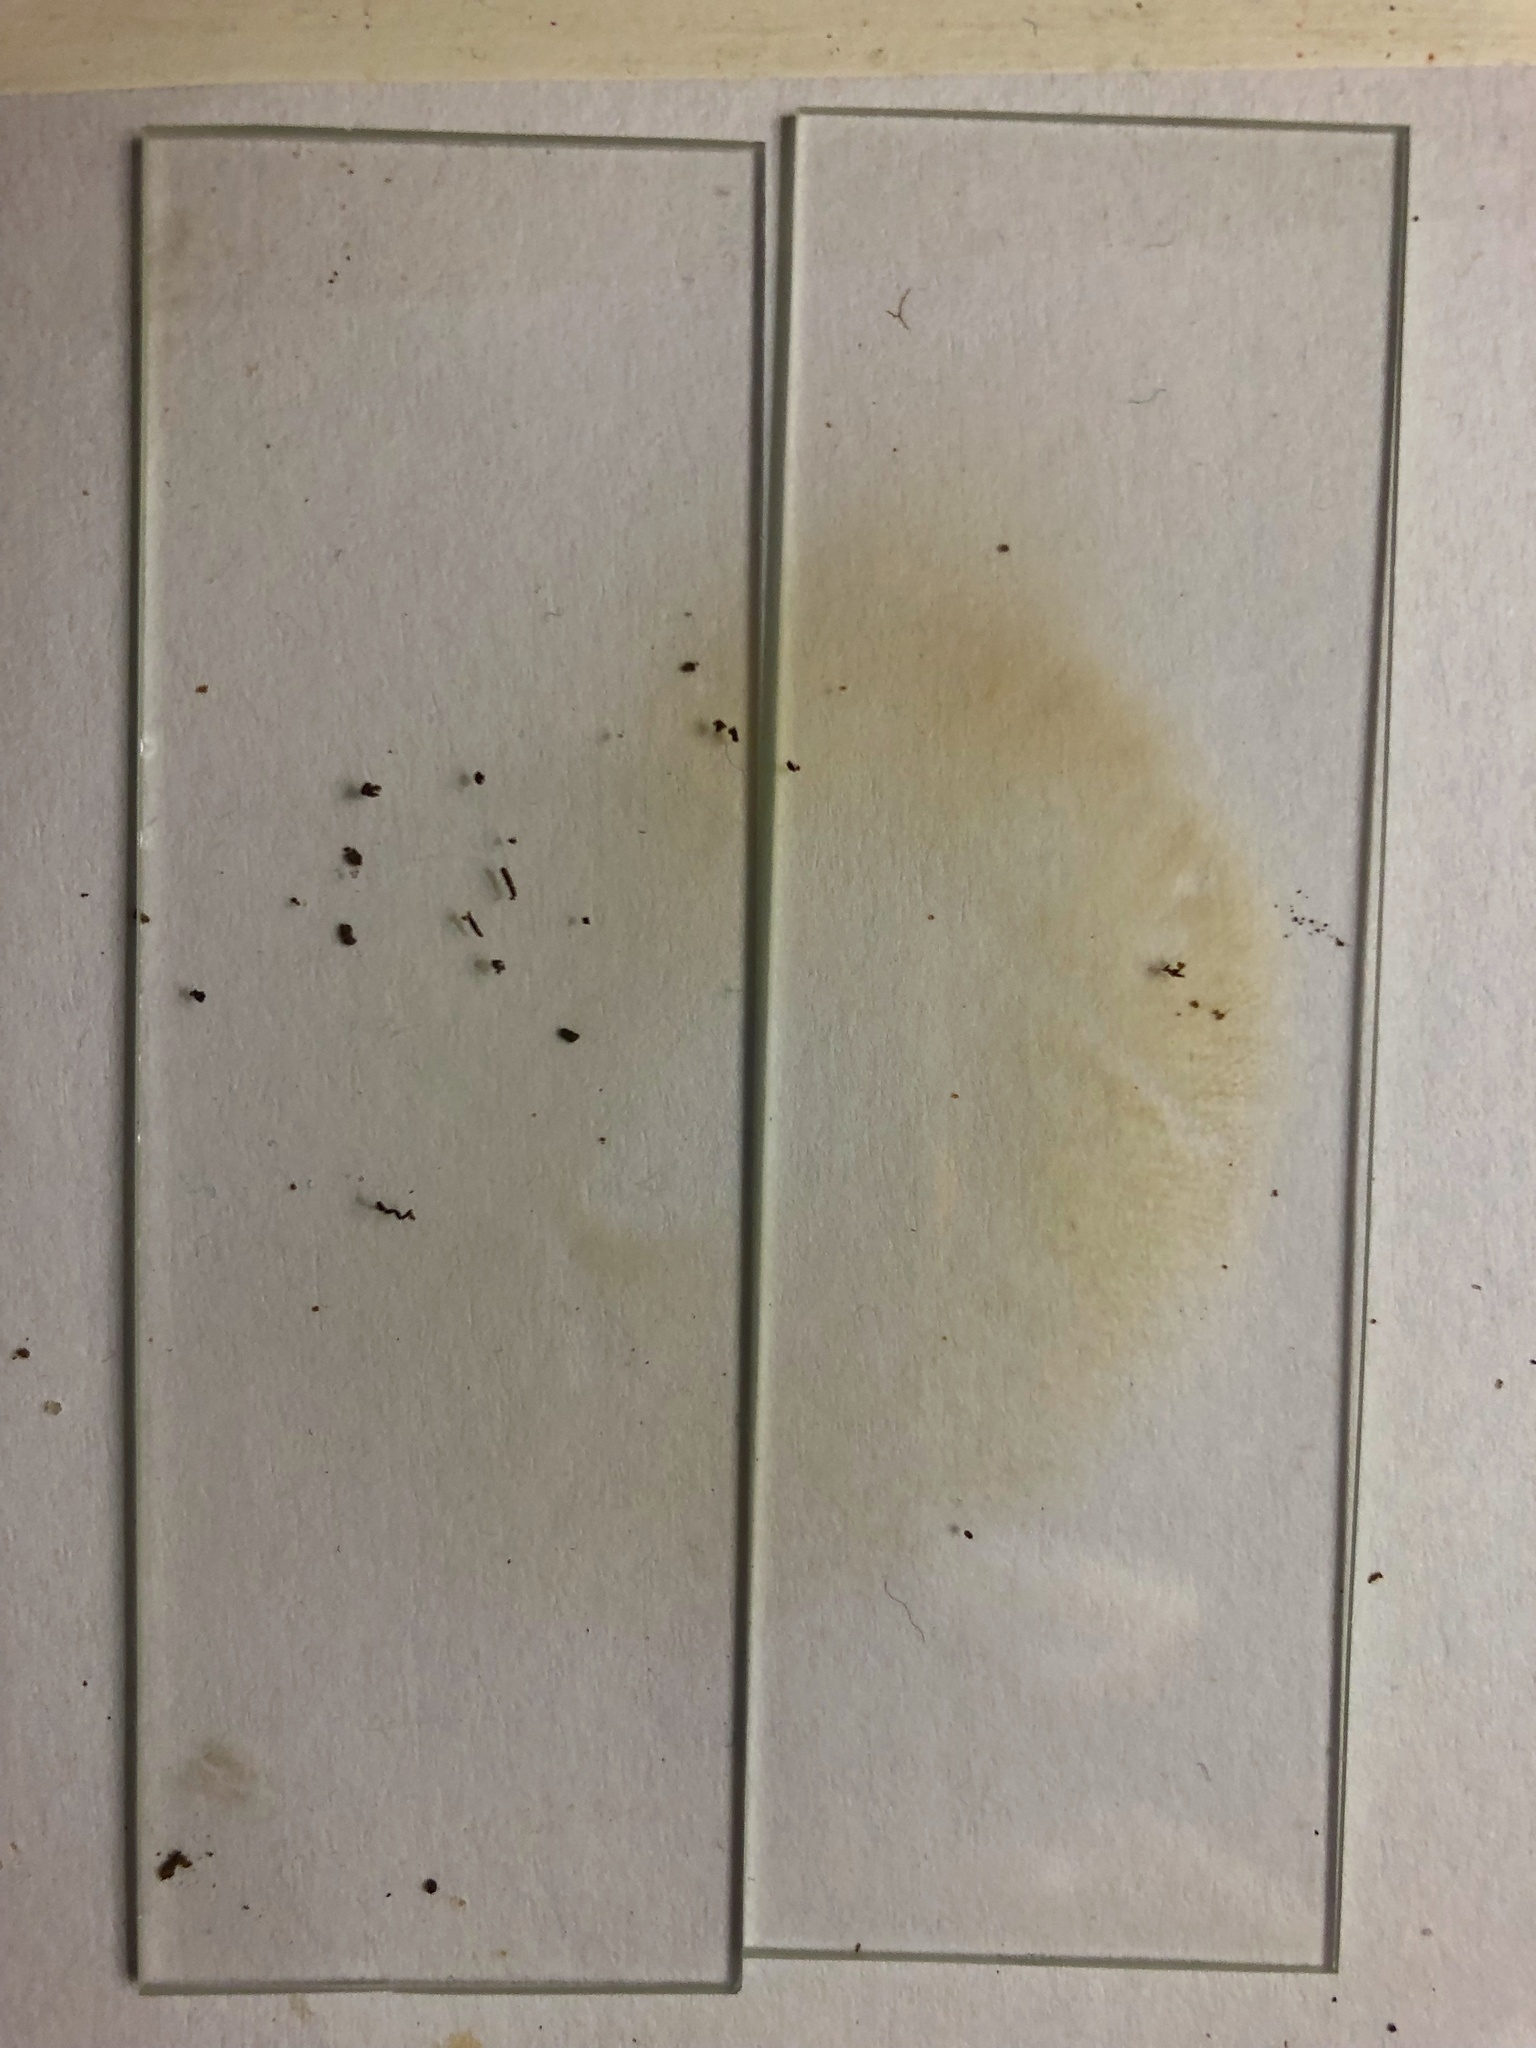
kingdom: Fungi
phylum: Basidiomycota
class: Agaricomycetes
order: Boletales
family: Boletaceae
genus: Xanthoconium
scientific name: Xanthoconium affine
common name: Spotted bolete
